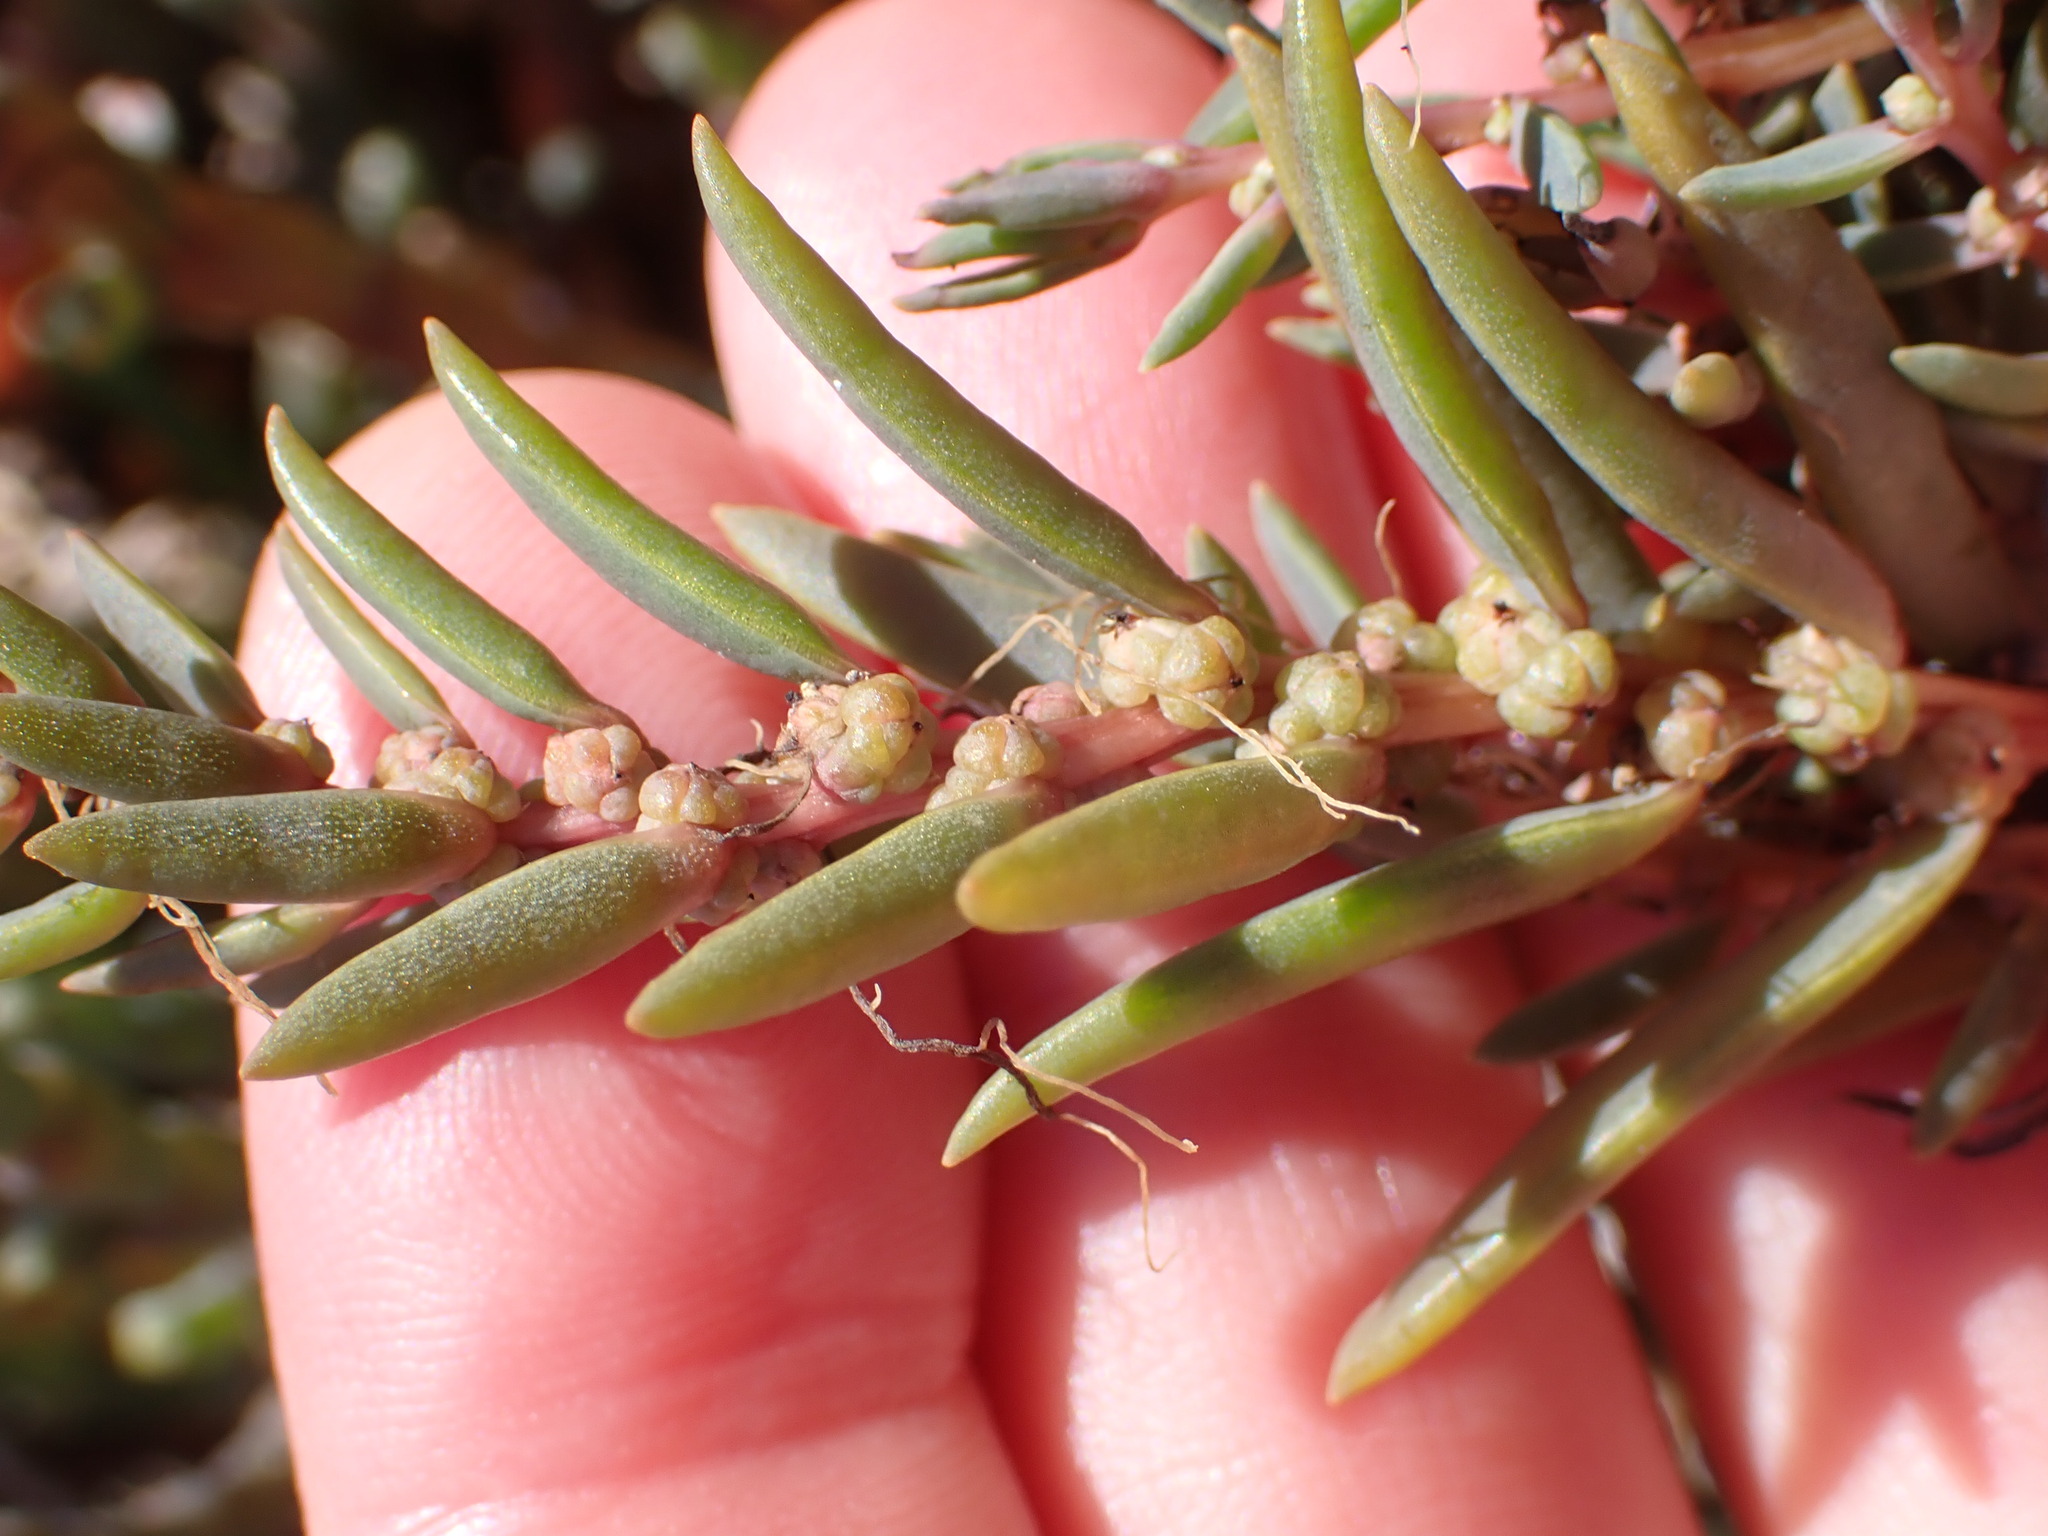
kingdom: Plantae
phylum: Tracheophyta
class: Magnoliopsida
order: Caryophyllales
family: Amaranthaceae
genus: Suaeda
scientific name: Suaeda novae-zelandiae
